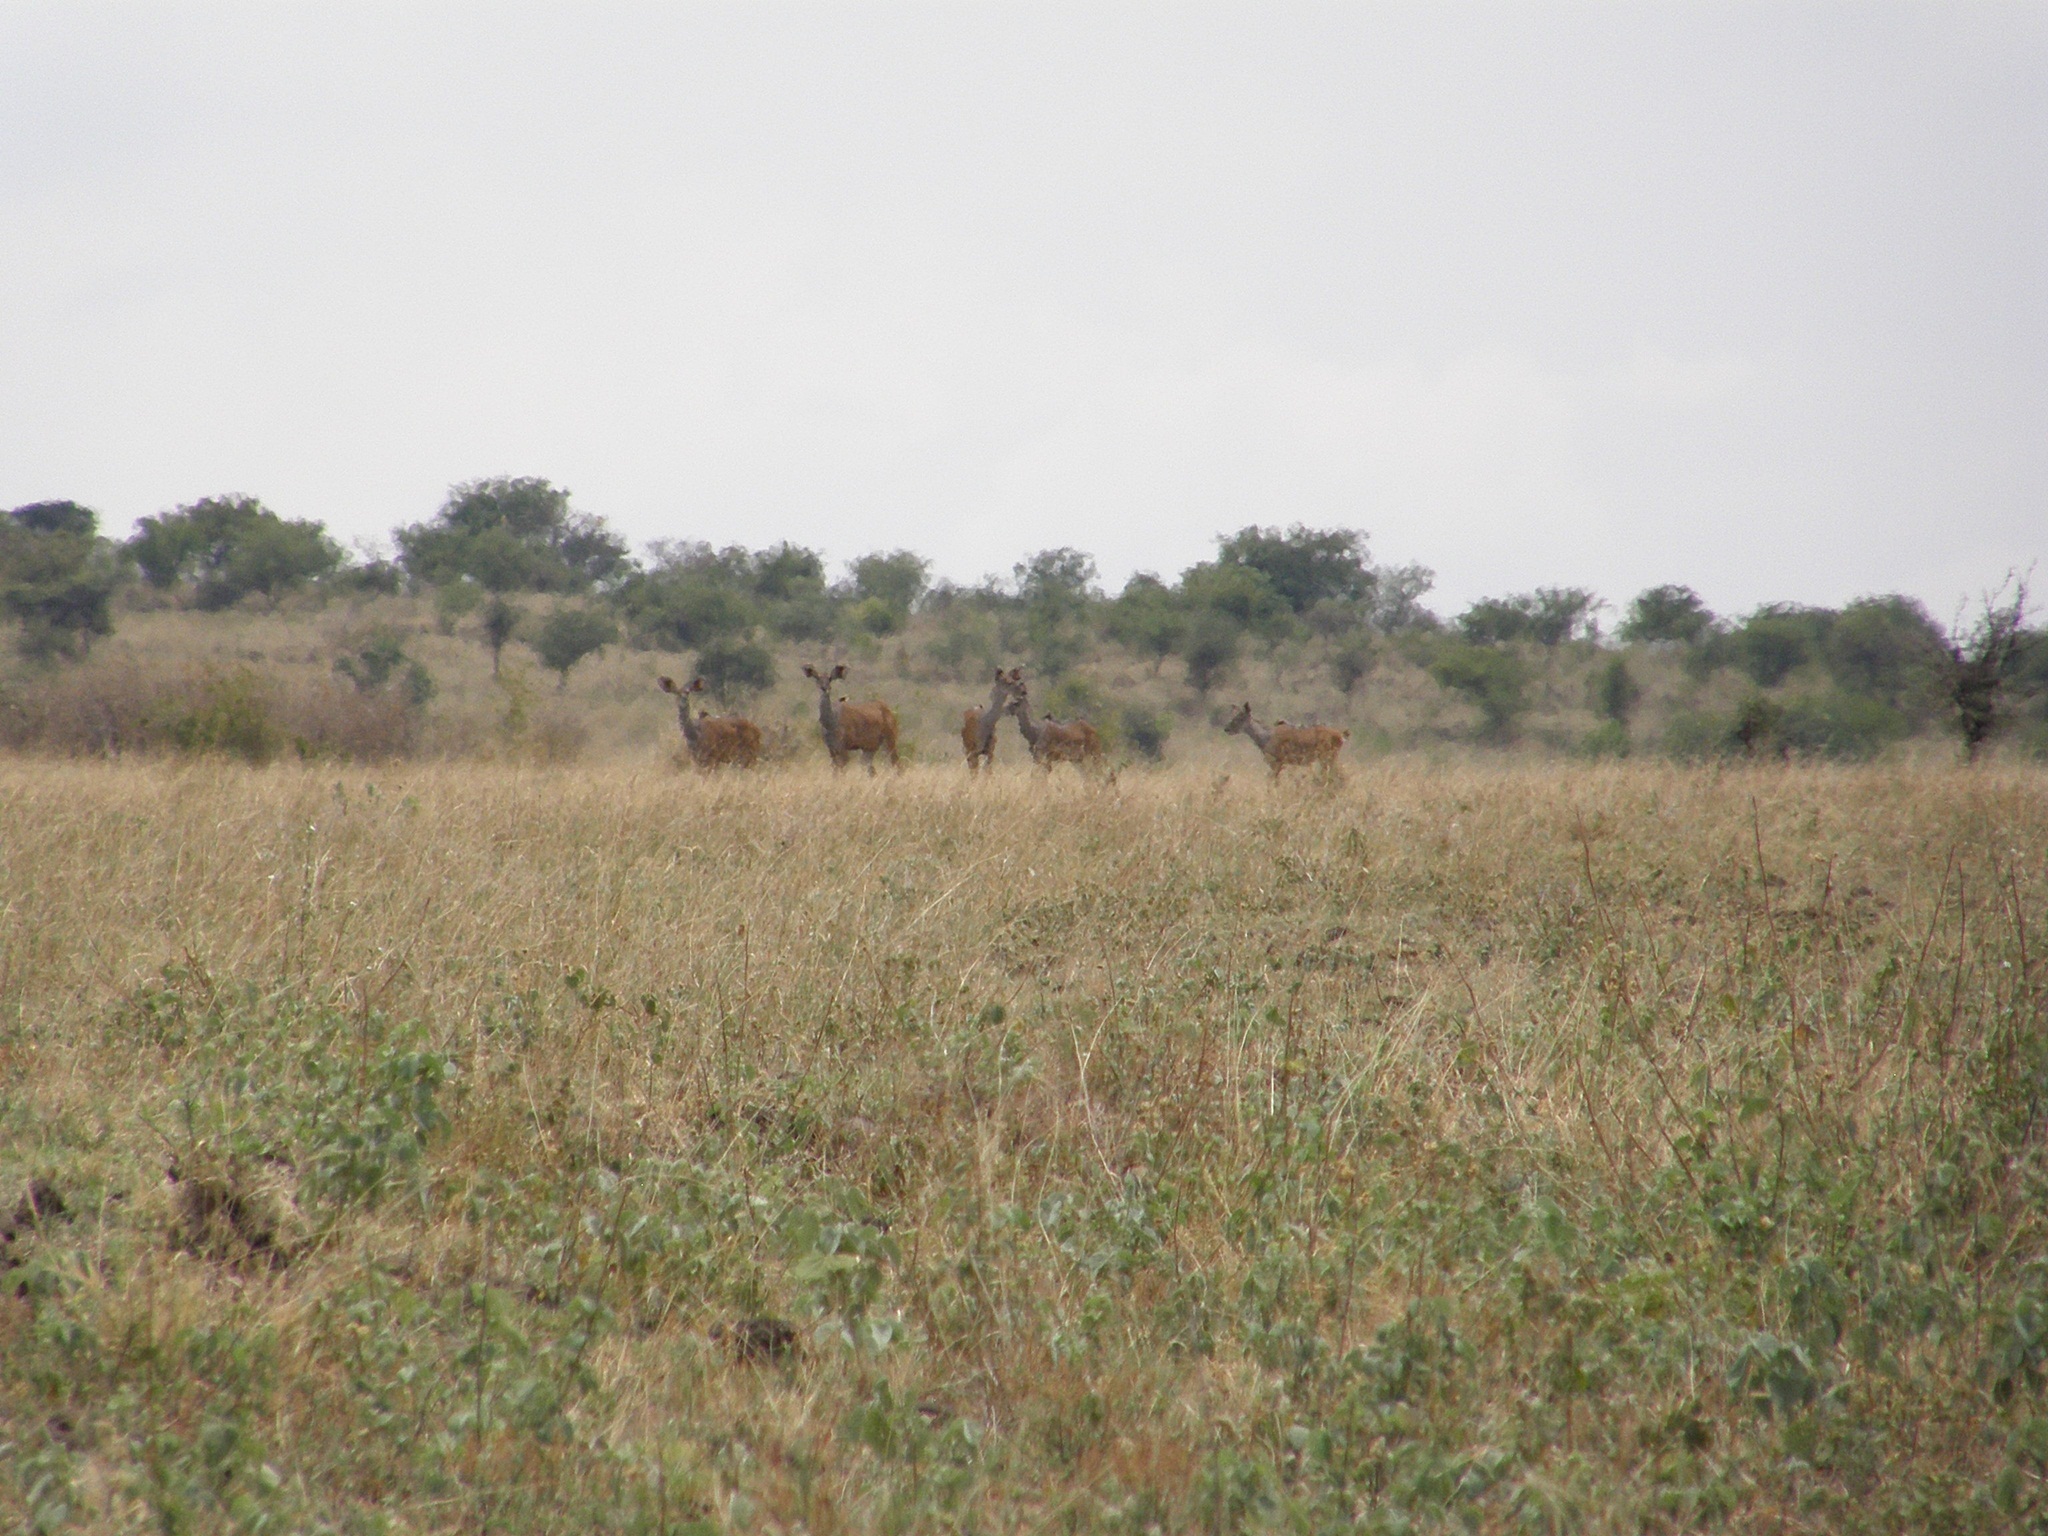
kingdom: Animalia
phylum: Chordata
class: Mammalia
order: Artiodactyla
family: Bovidae
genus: Tragelaphus
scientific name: Tragelaphus strepsiceros
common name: Greater kudu
